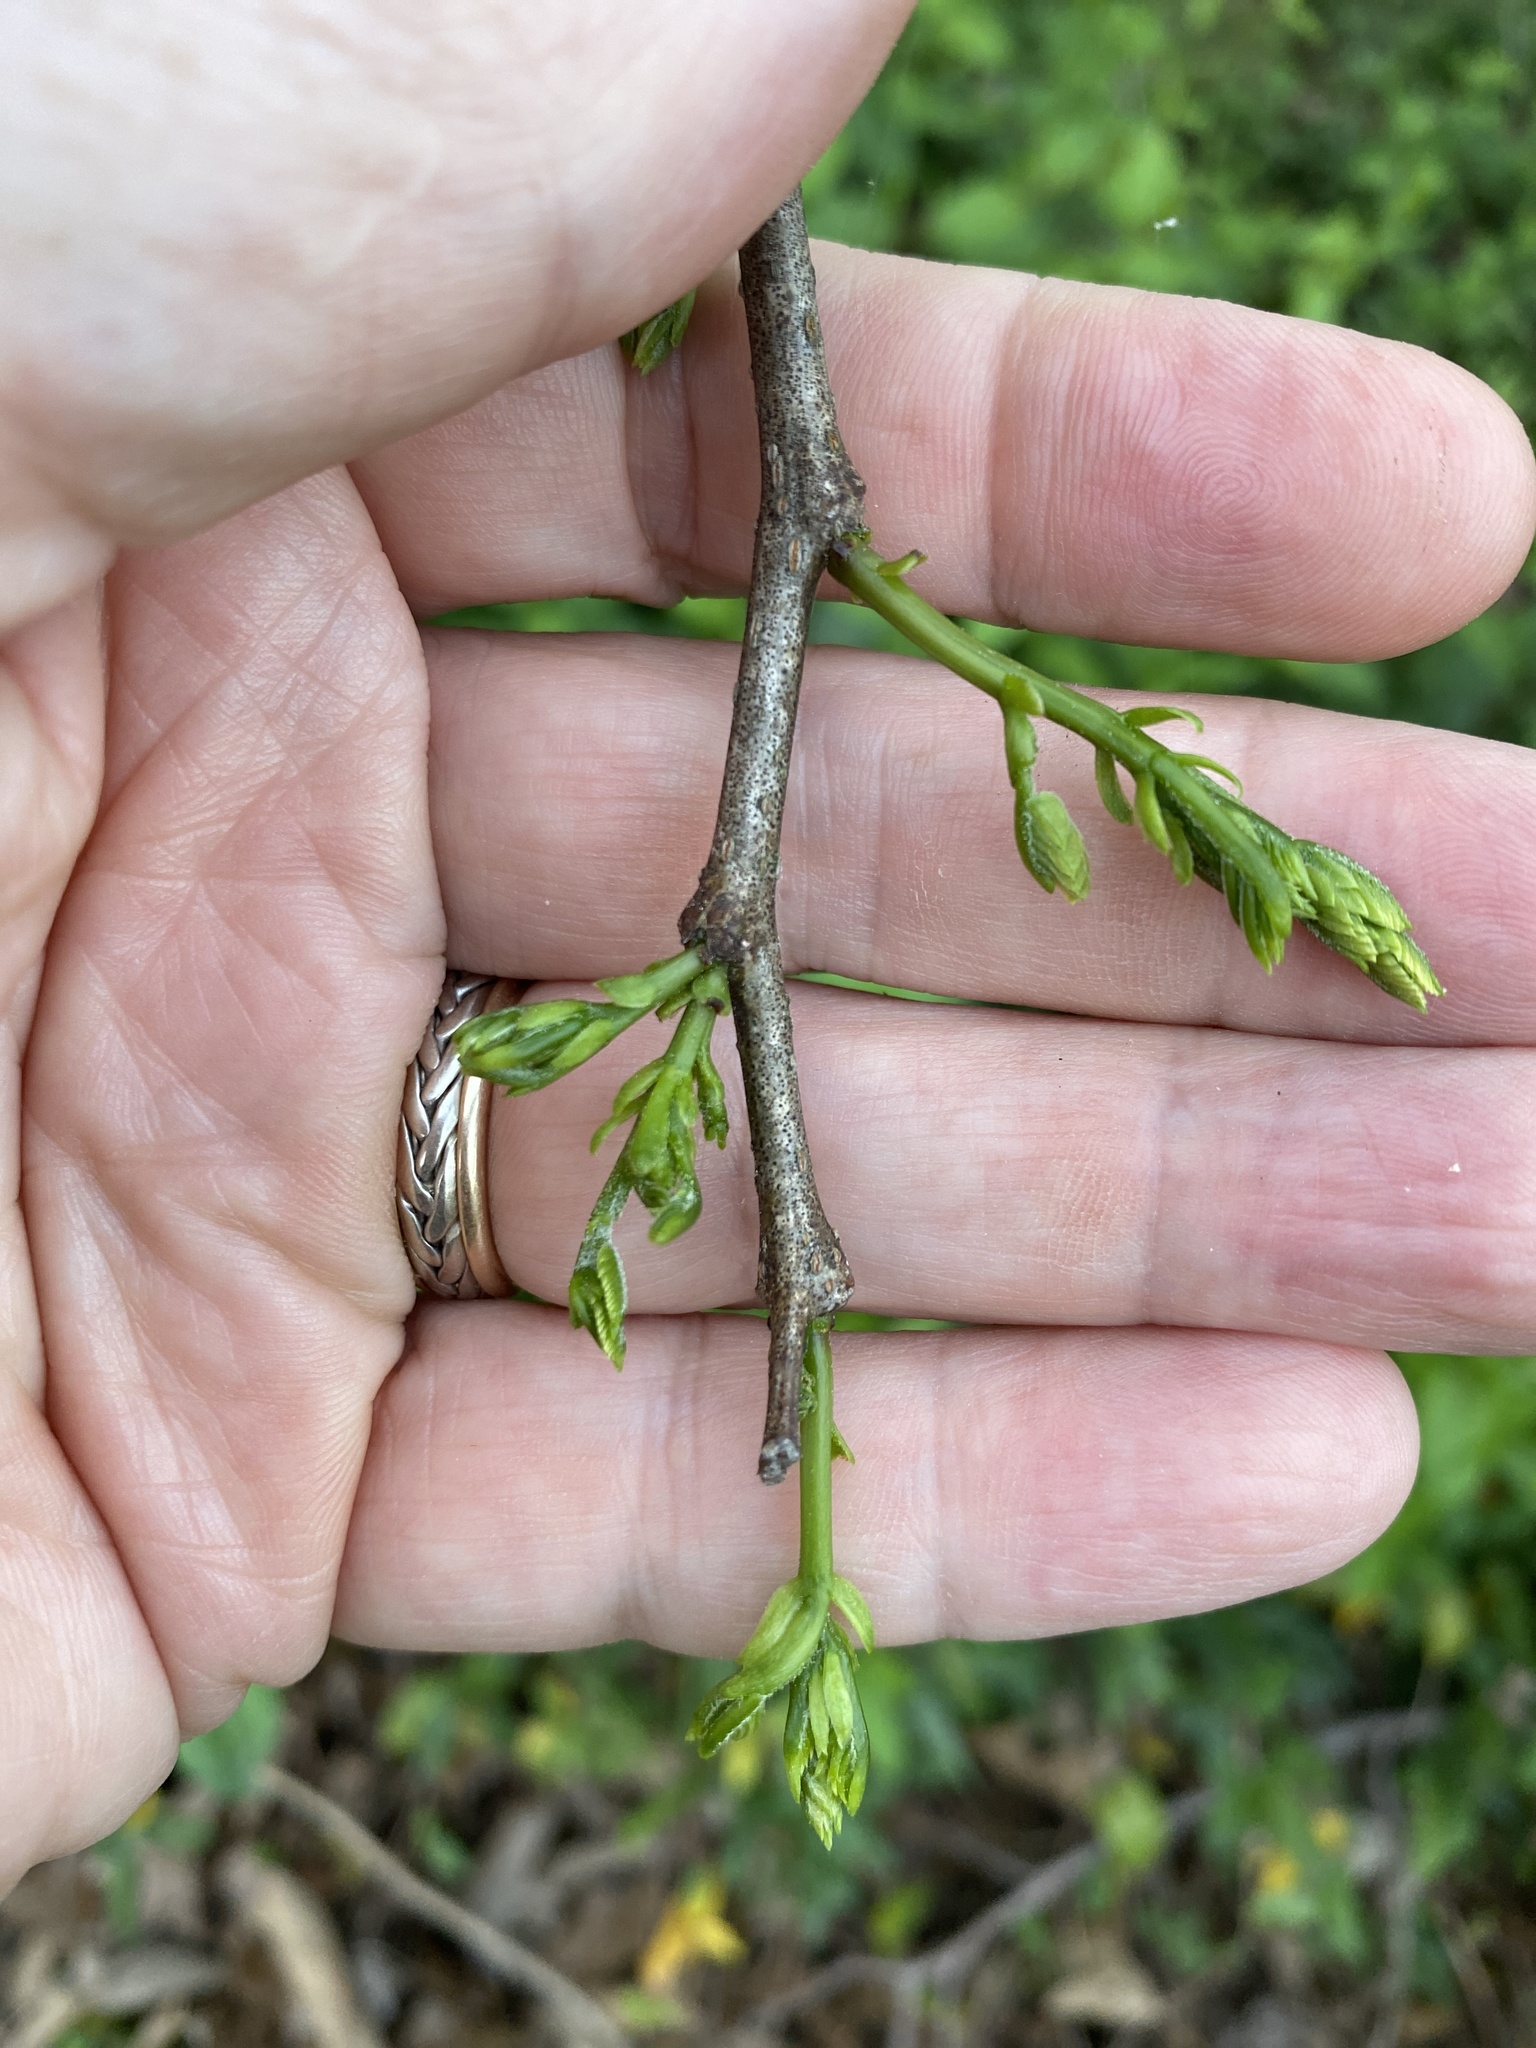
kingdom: Plantae
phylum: Tracheophyta
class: Magnoliopsida
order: Fabales
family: Fabaceae
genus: Albizia
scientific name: Albizia julibrissin
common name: Silktree
